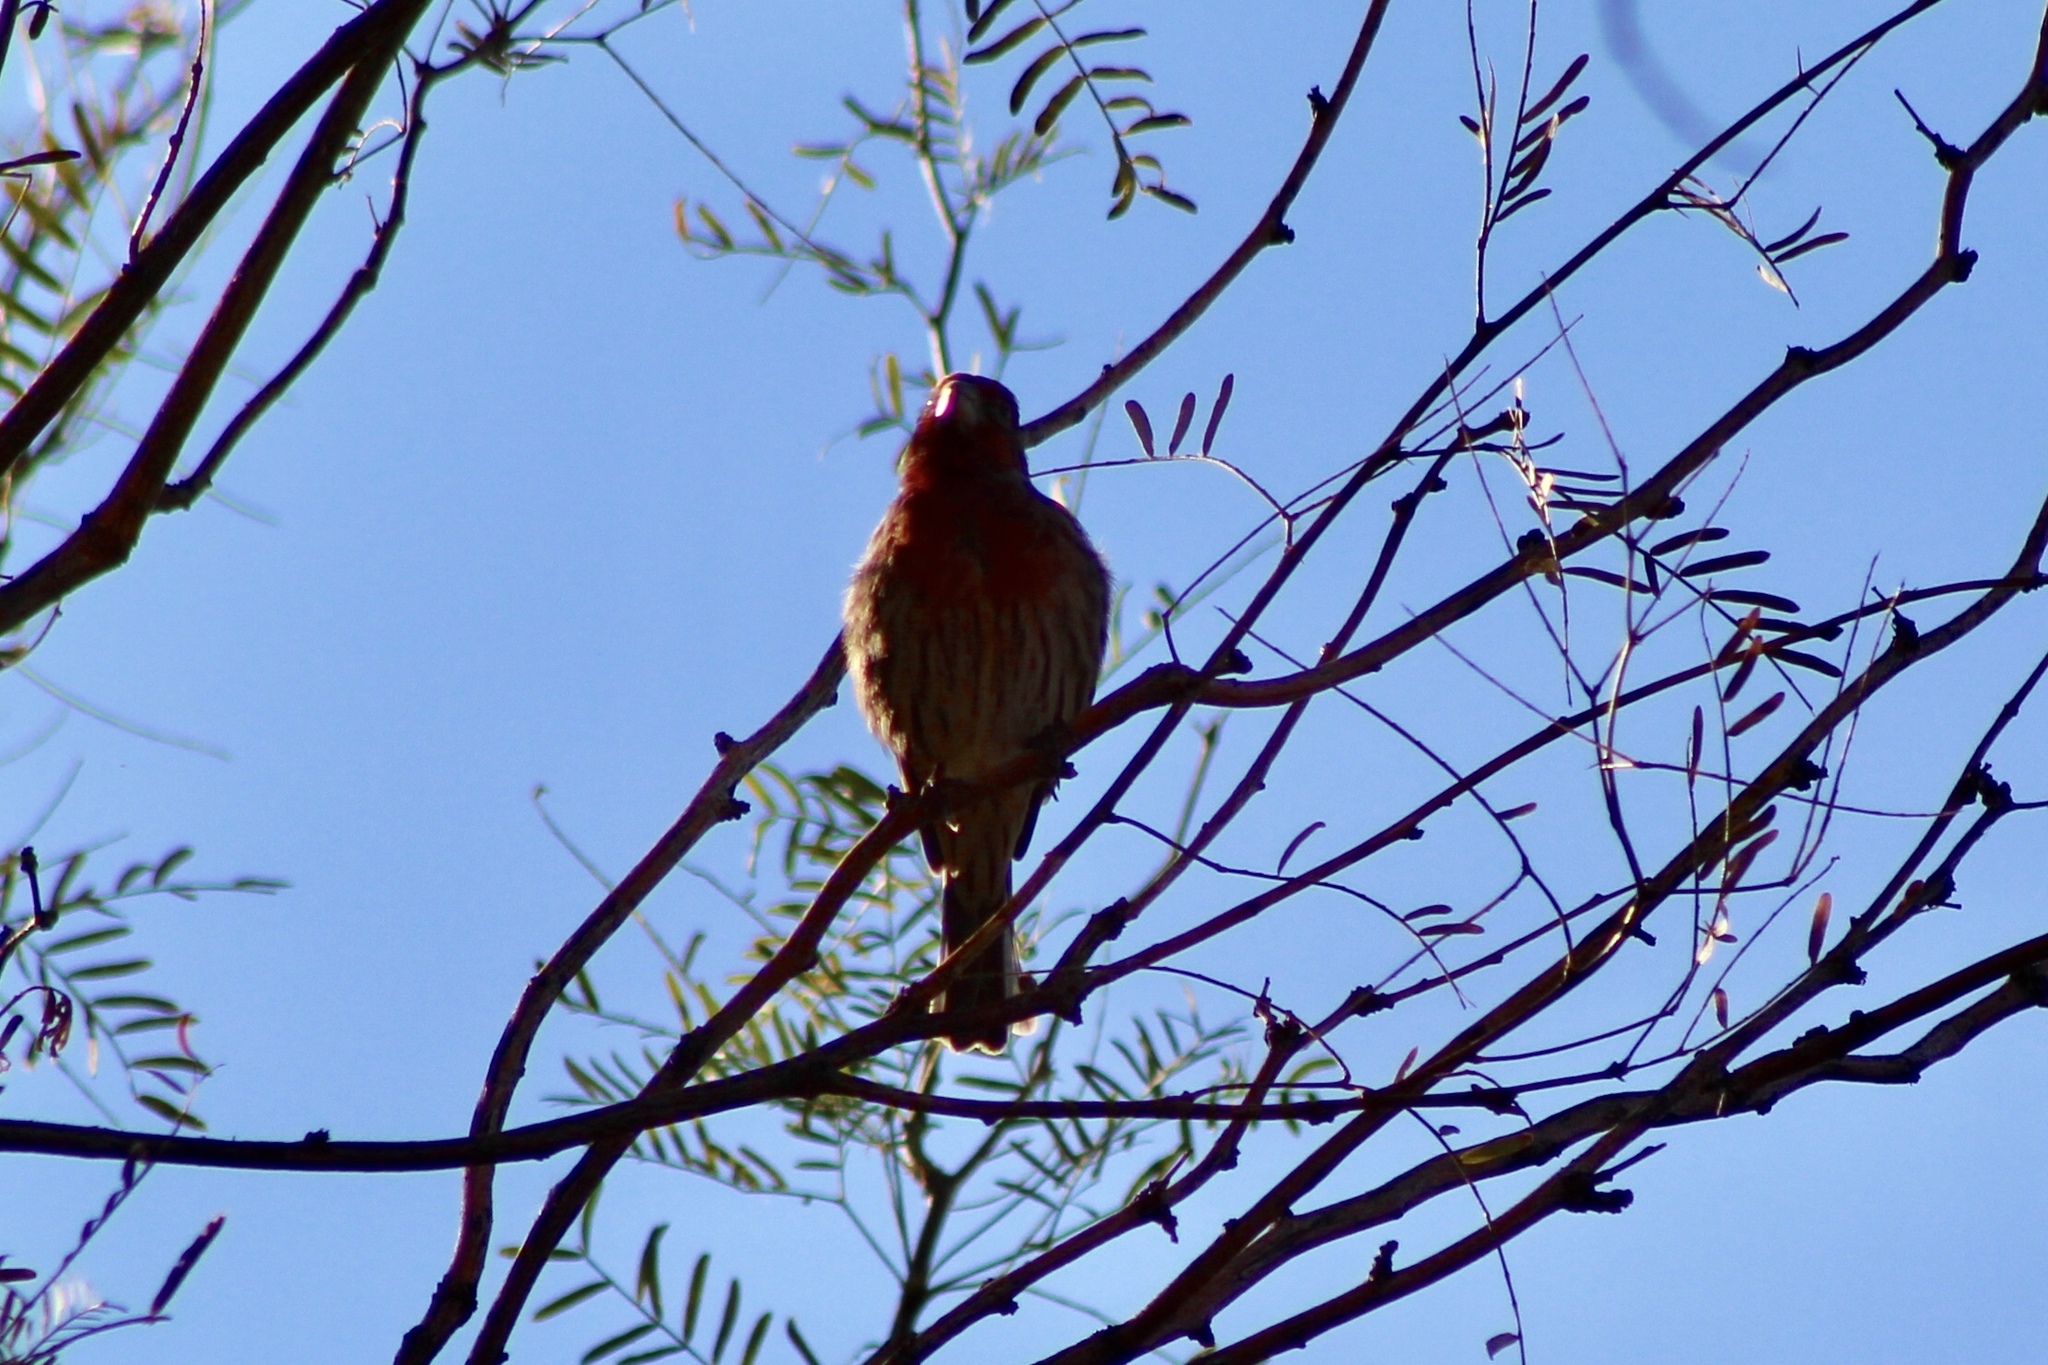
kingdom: Animalia
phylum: Chordata
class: Aves
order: Passeriformes
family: Fringillidae
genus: Haemorhous
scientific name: Haemorhous mexicanus
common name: House finch
